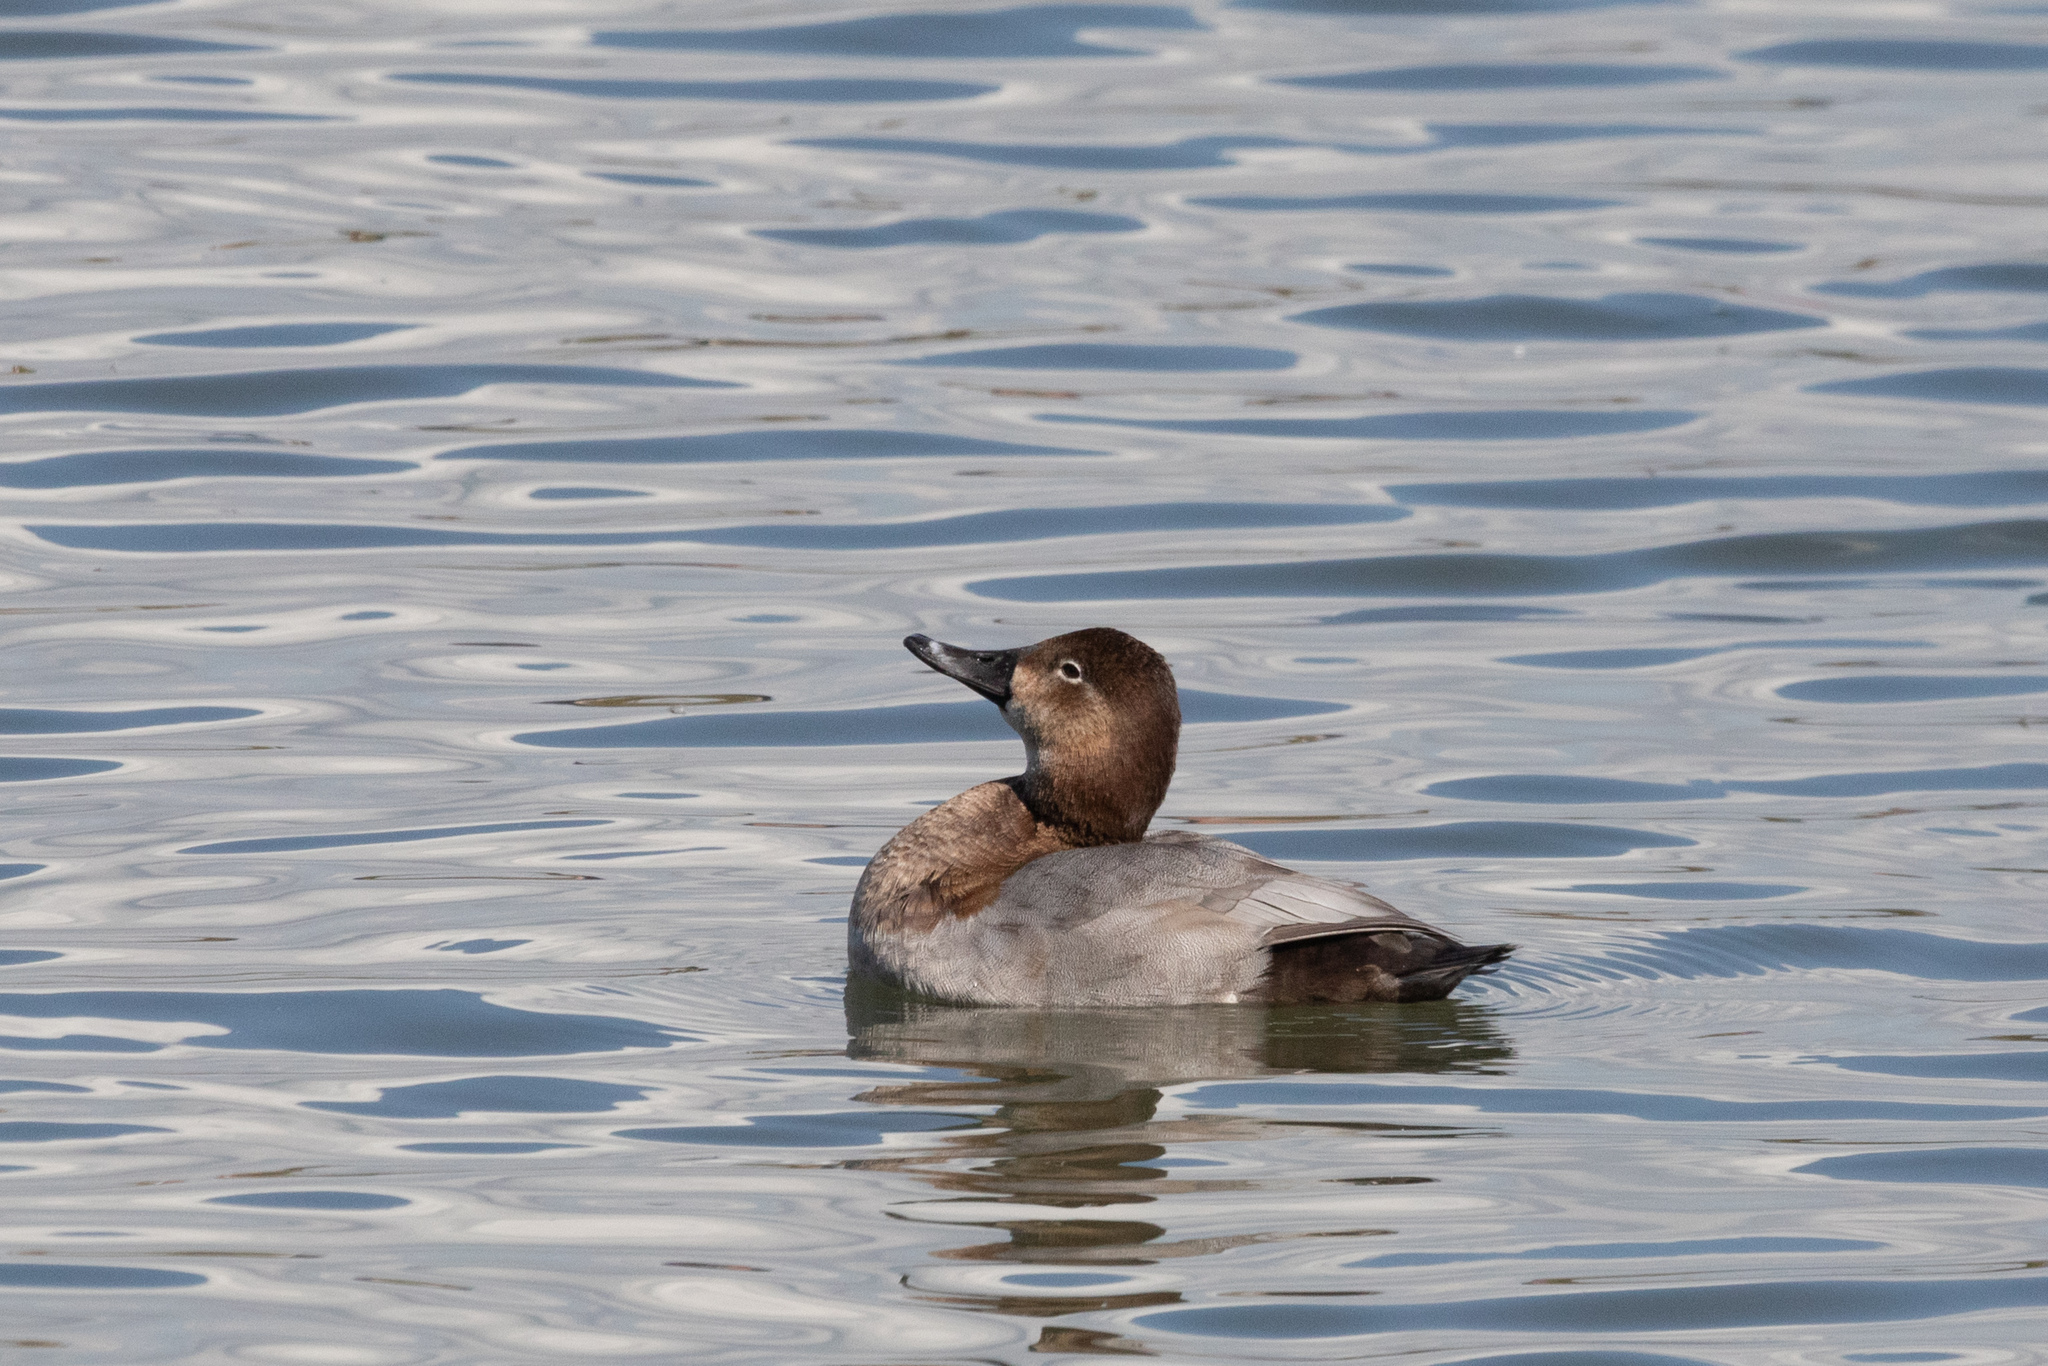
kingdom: Animalia
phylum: Chordata
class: Aves
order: Anseriformes
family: Anatidae
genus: Aythya
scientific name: Aythya ferina
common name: Common pochard
